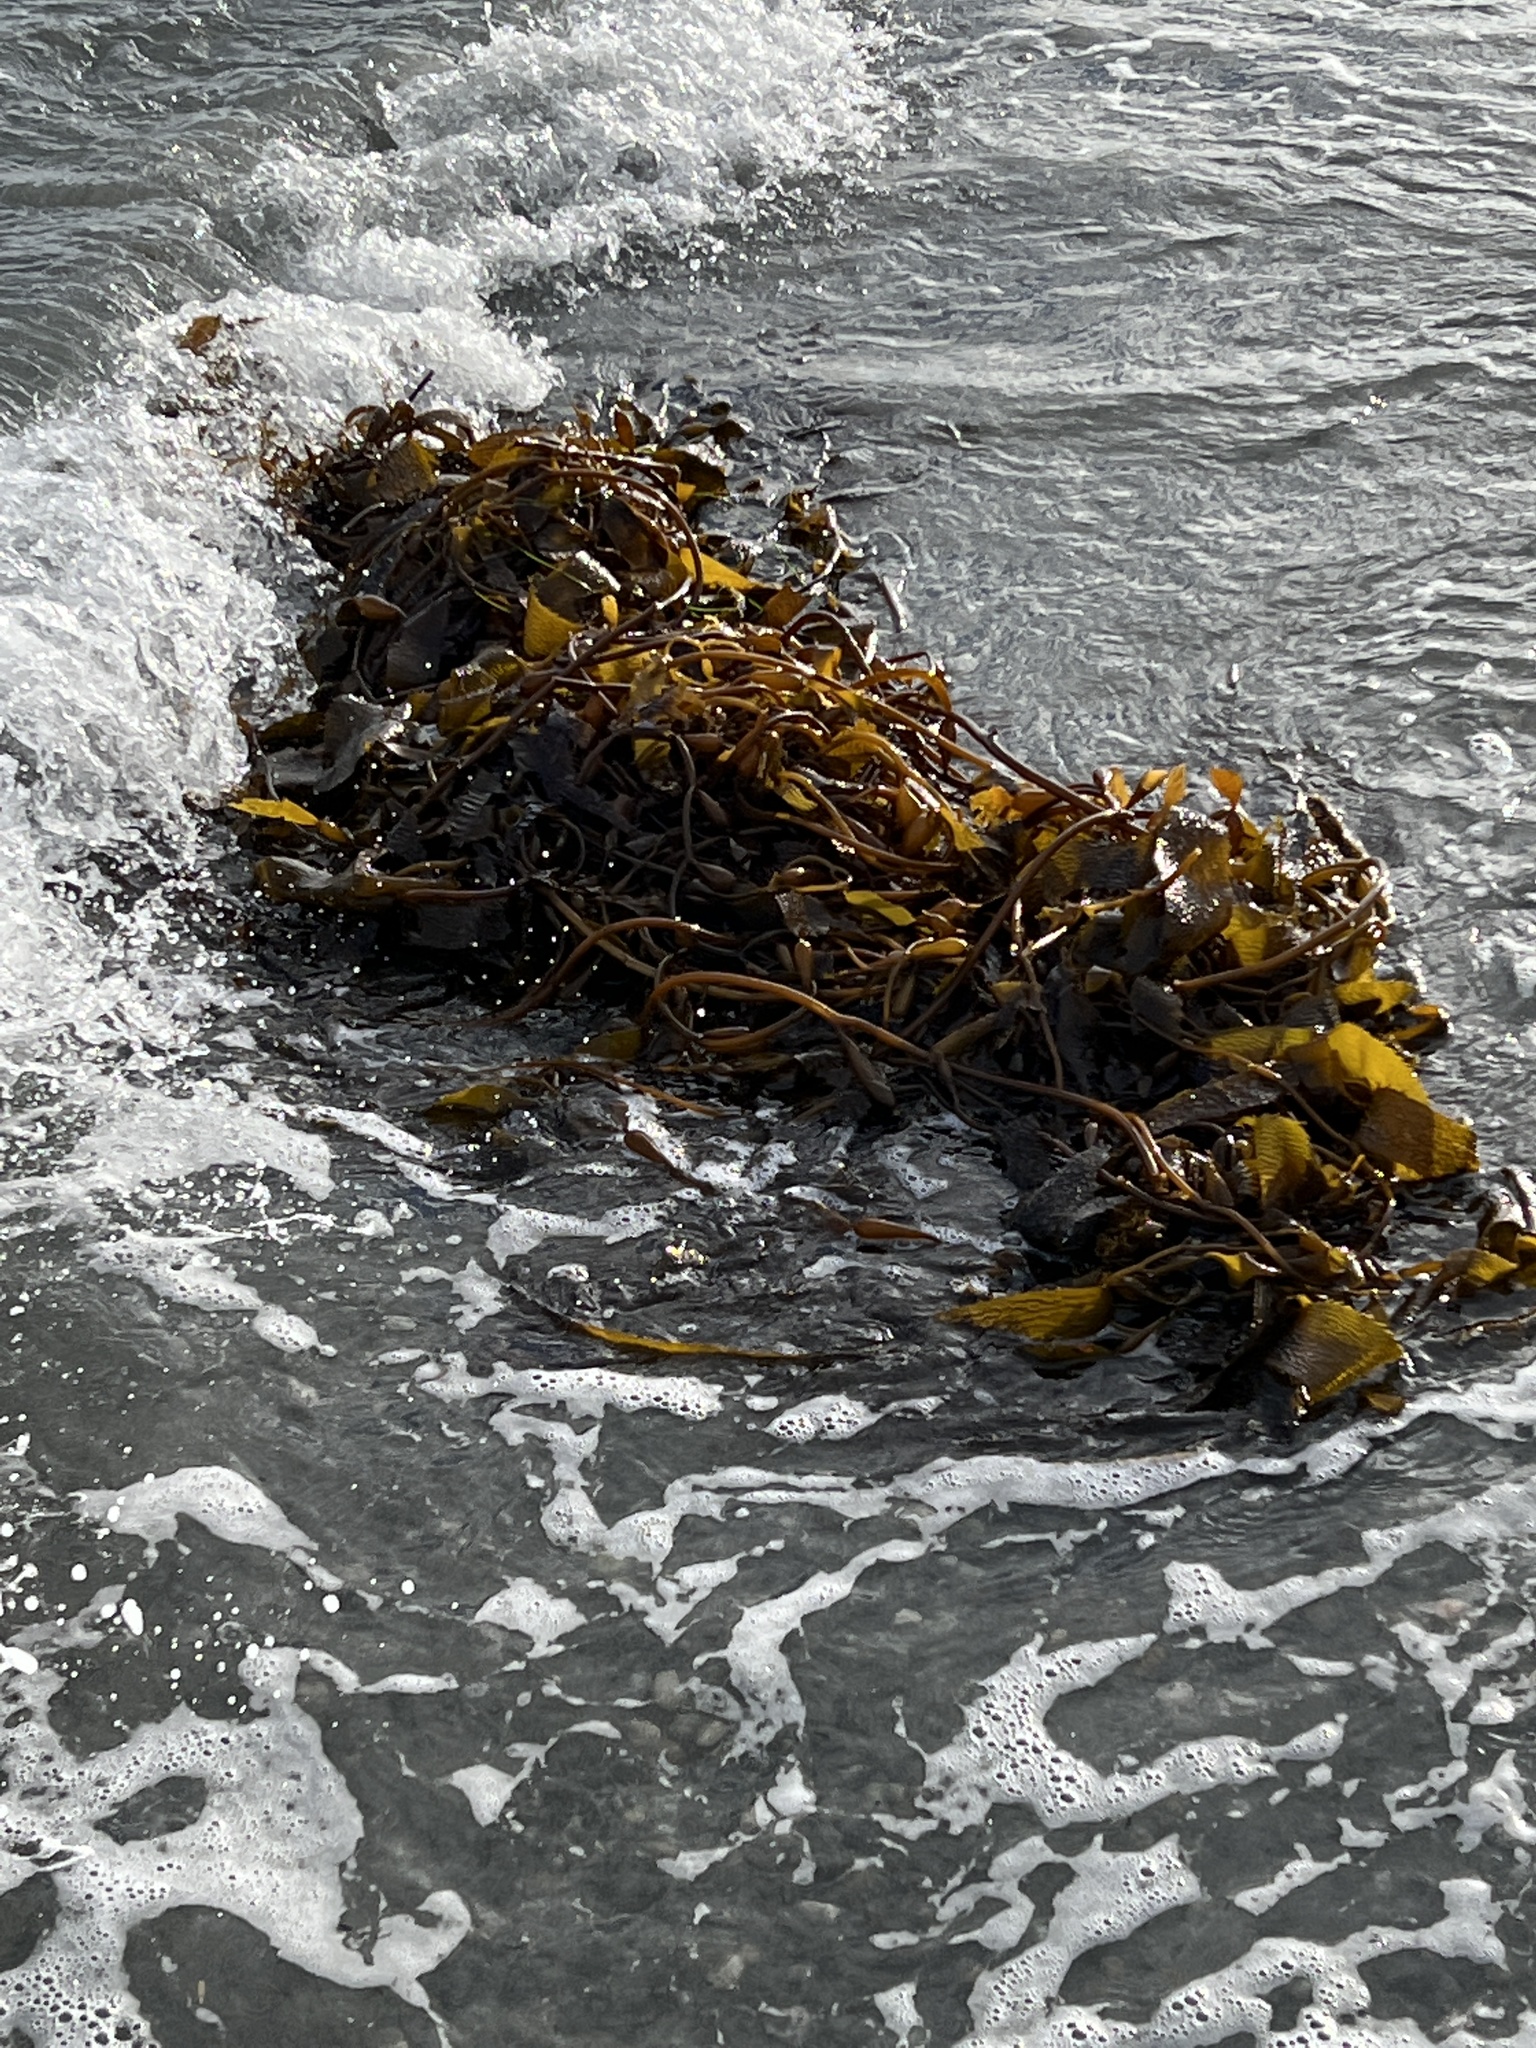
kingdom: Chromista
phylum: Ochrophyta
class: Phaeophyceae
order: Laminariales
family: Laminariaceae
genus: Macrocystis
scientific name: Macrocystis pyrifera
